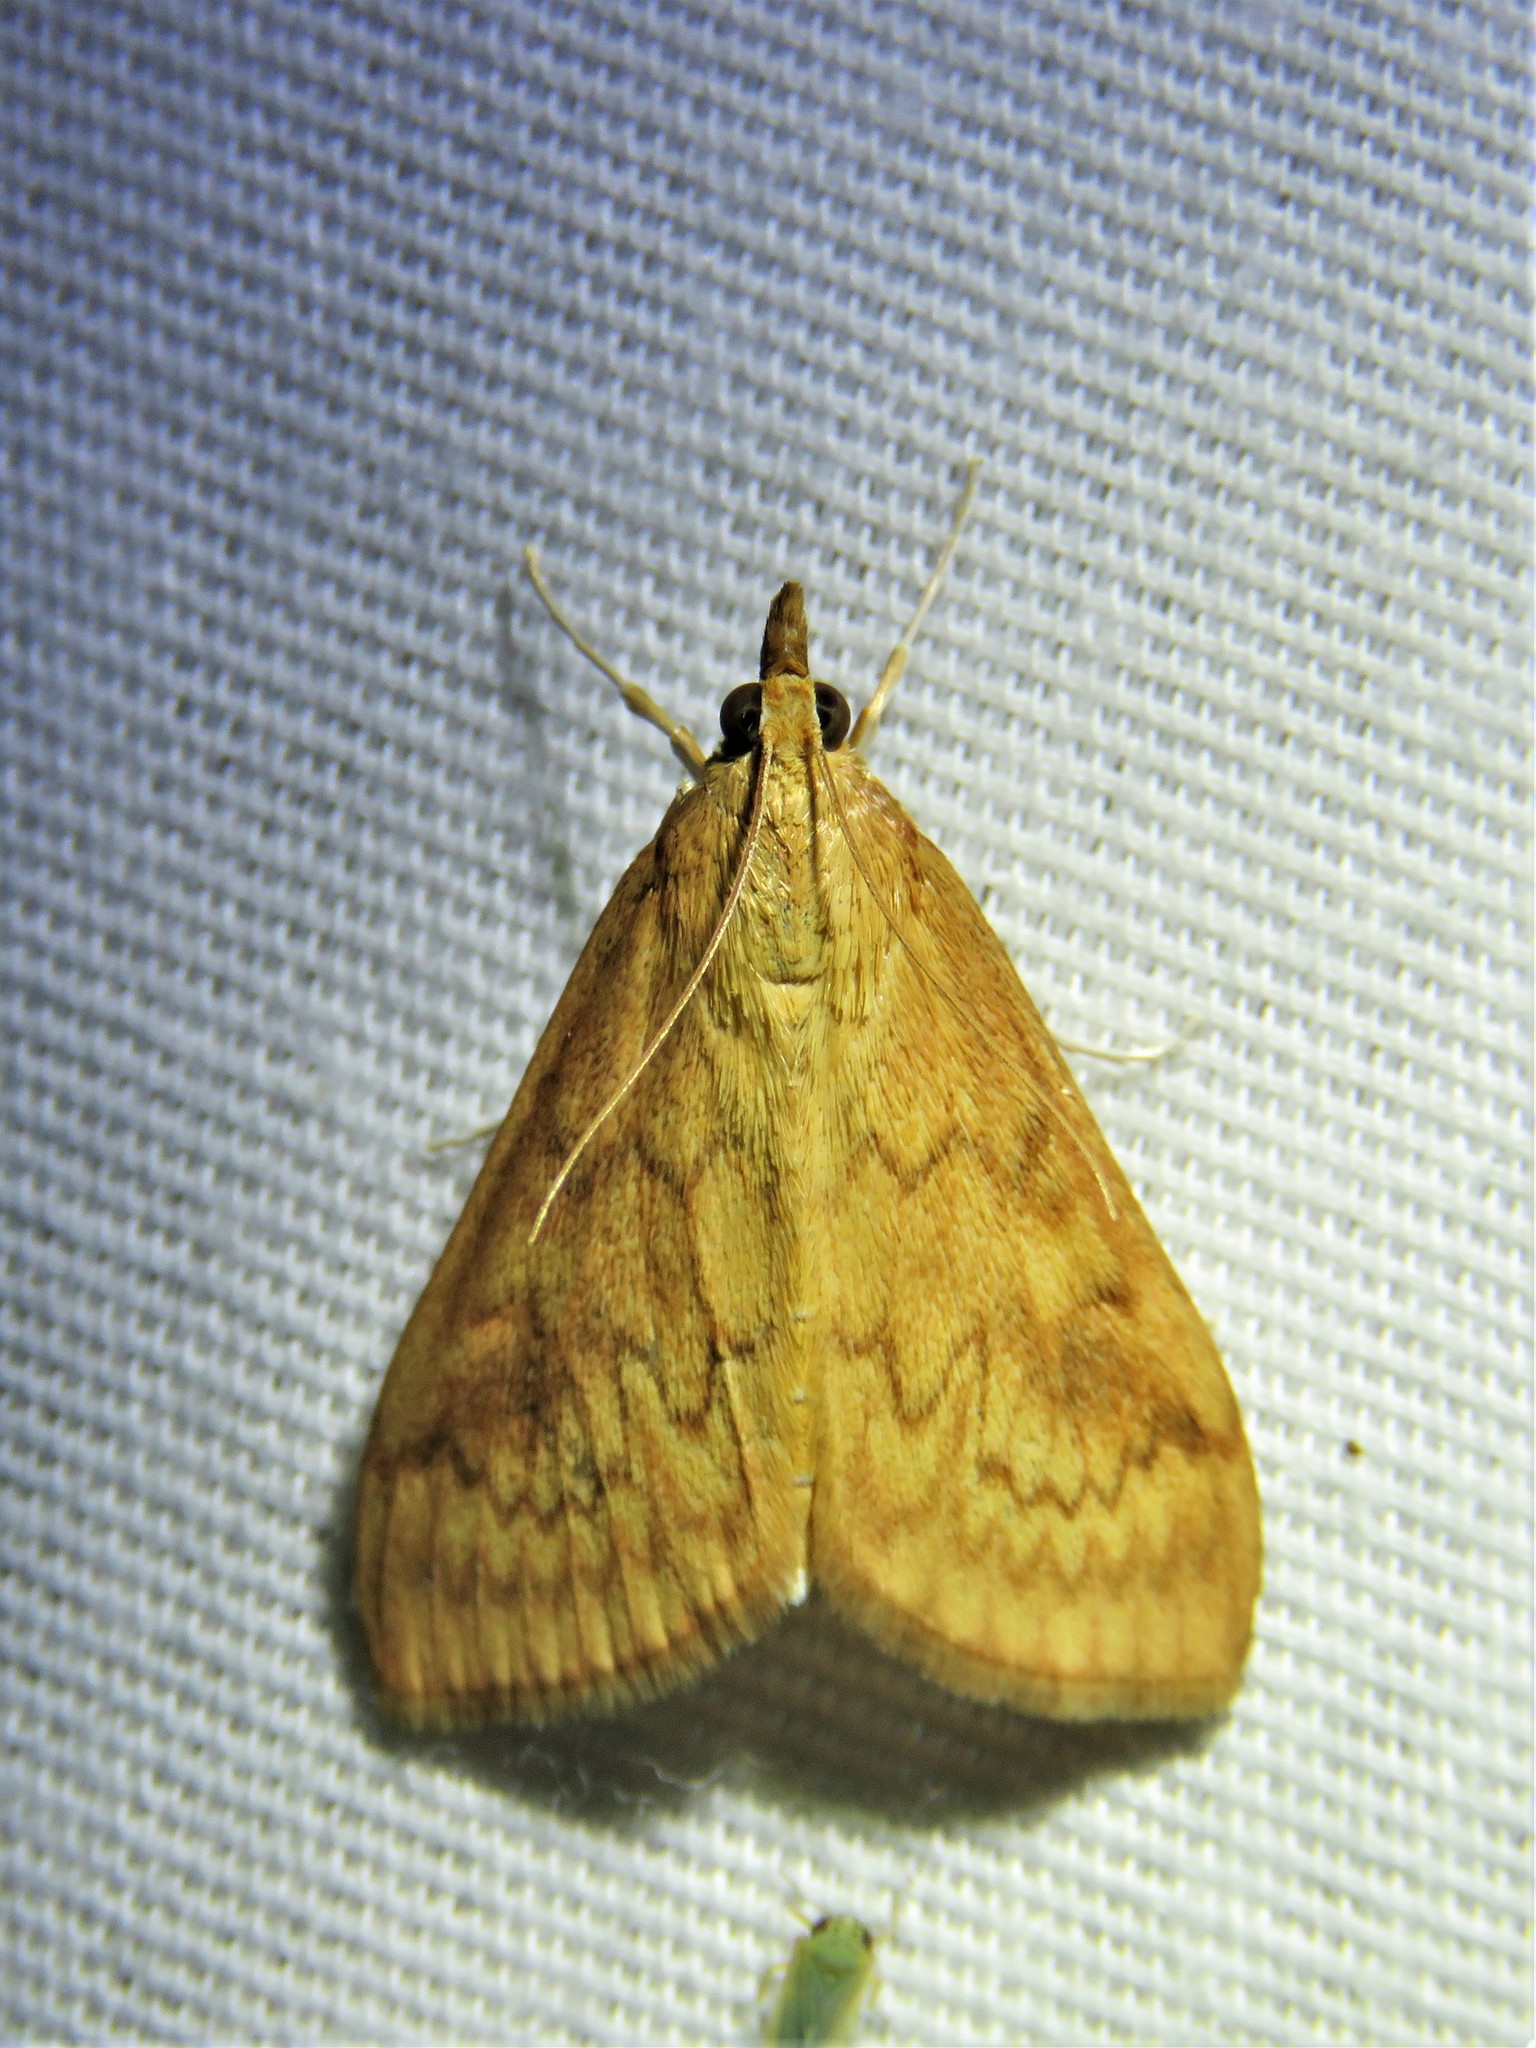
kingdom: Animalia
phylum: Arthropoda
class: Insecta
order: Lepidoptera
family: Crambidae
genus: Ostrinia
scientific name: Ostrinia penitalis
